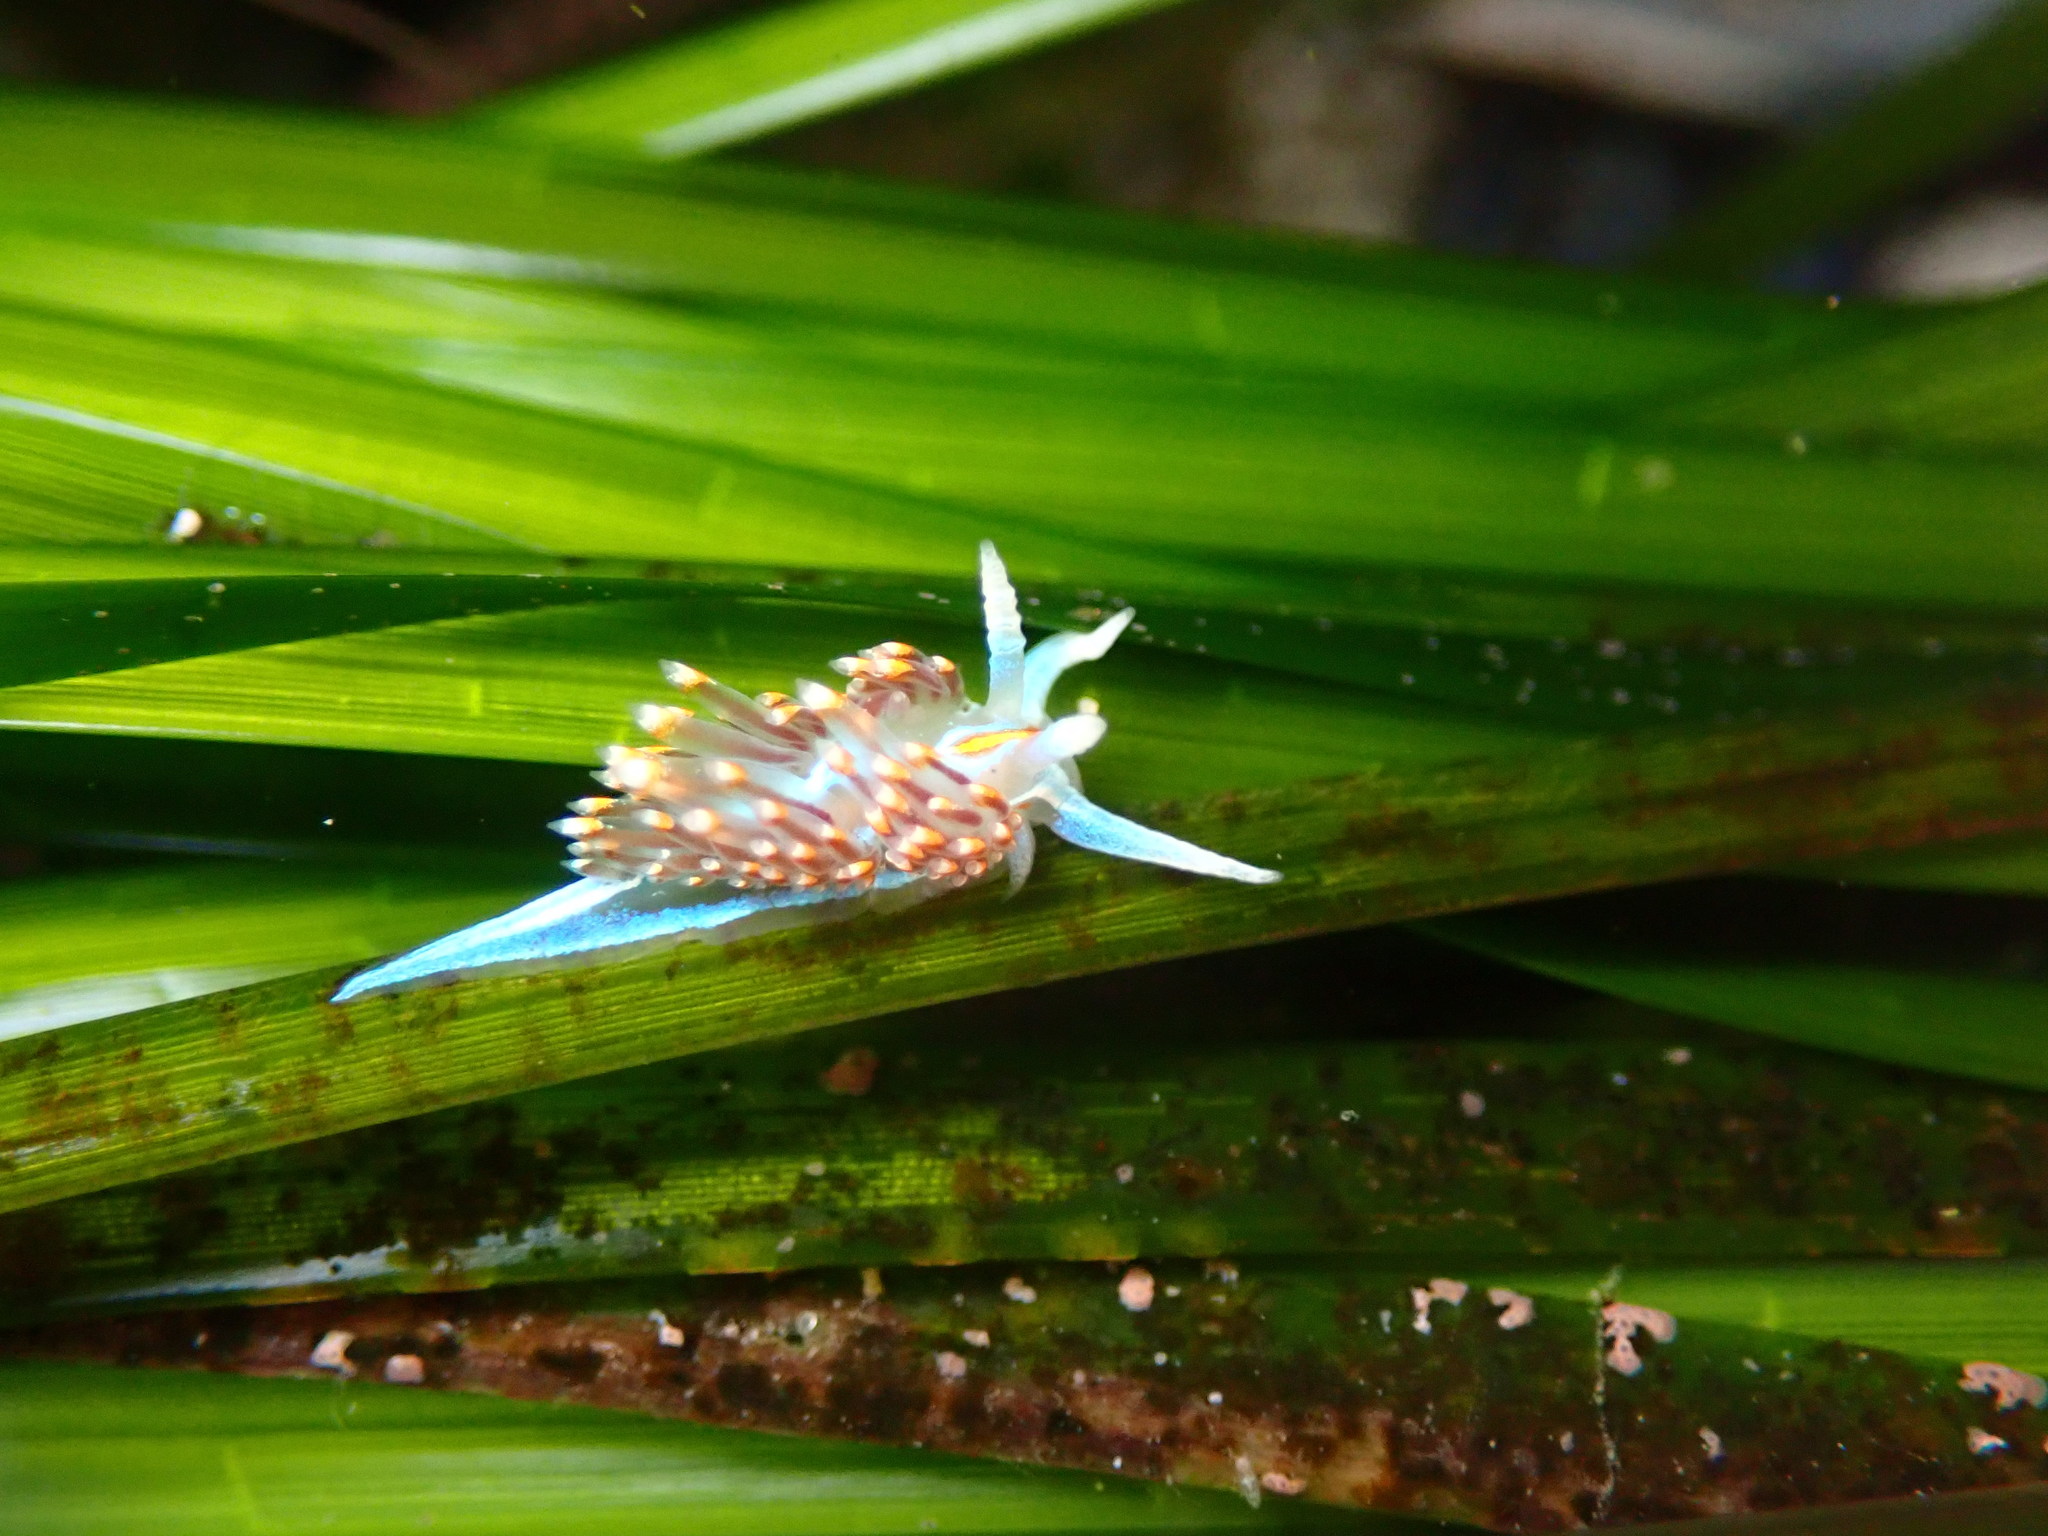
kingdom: Animalia
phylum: Mollusca
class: Gastropoda
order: Nudibranchia
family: Myrrhinidae
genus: Hermissenda
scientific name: Hermissenda opalescens
